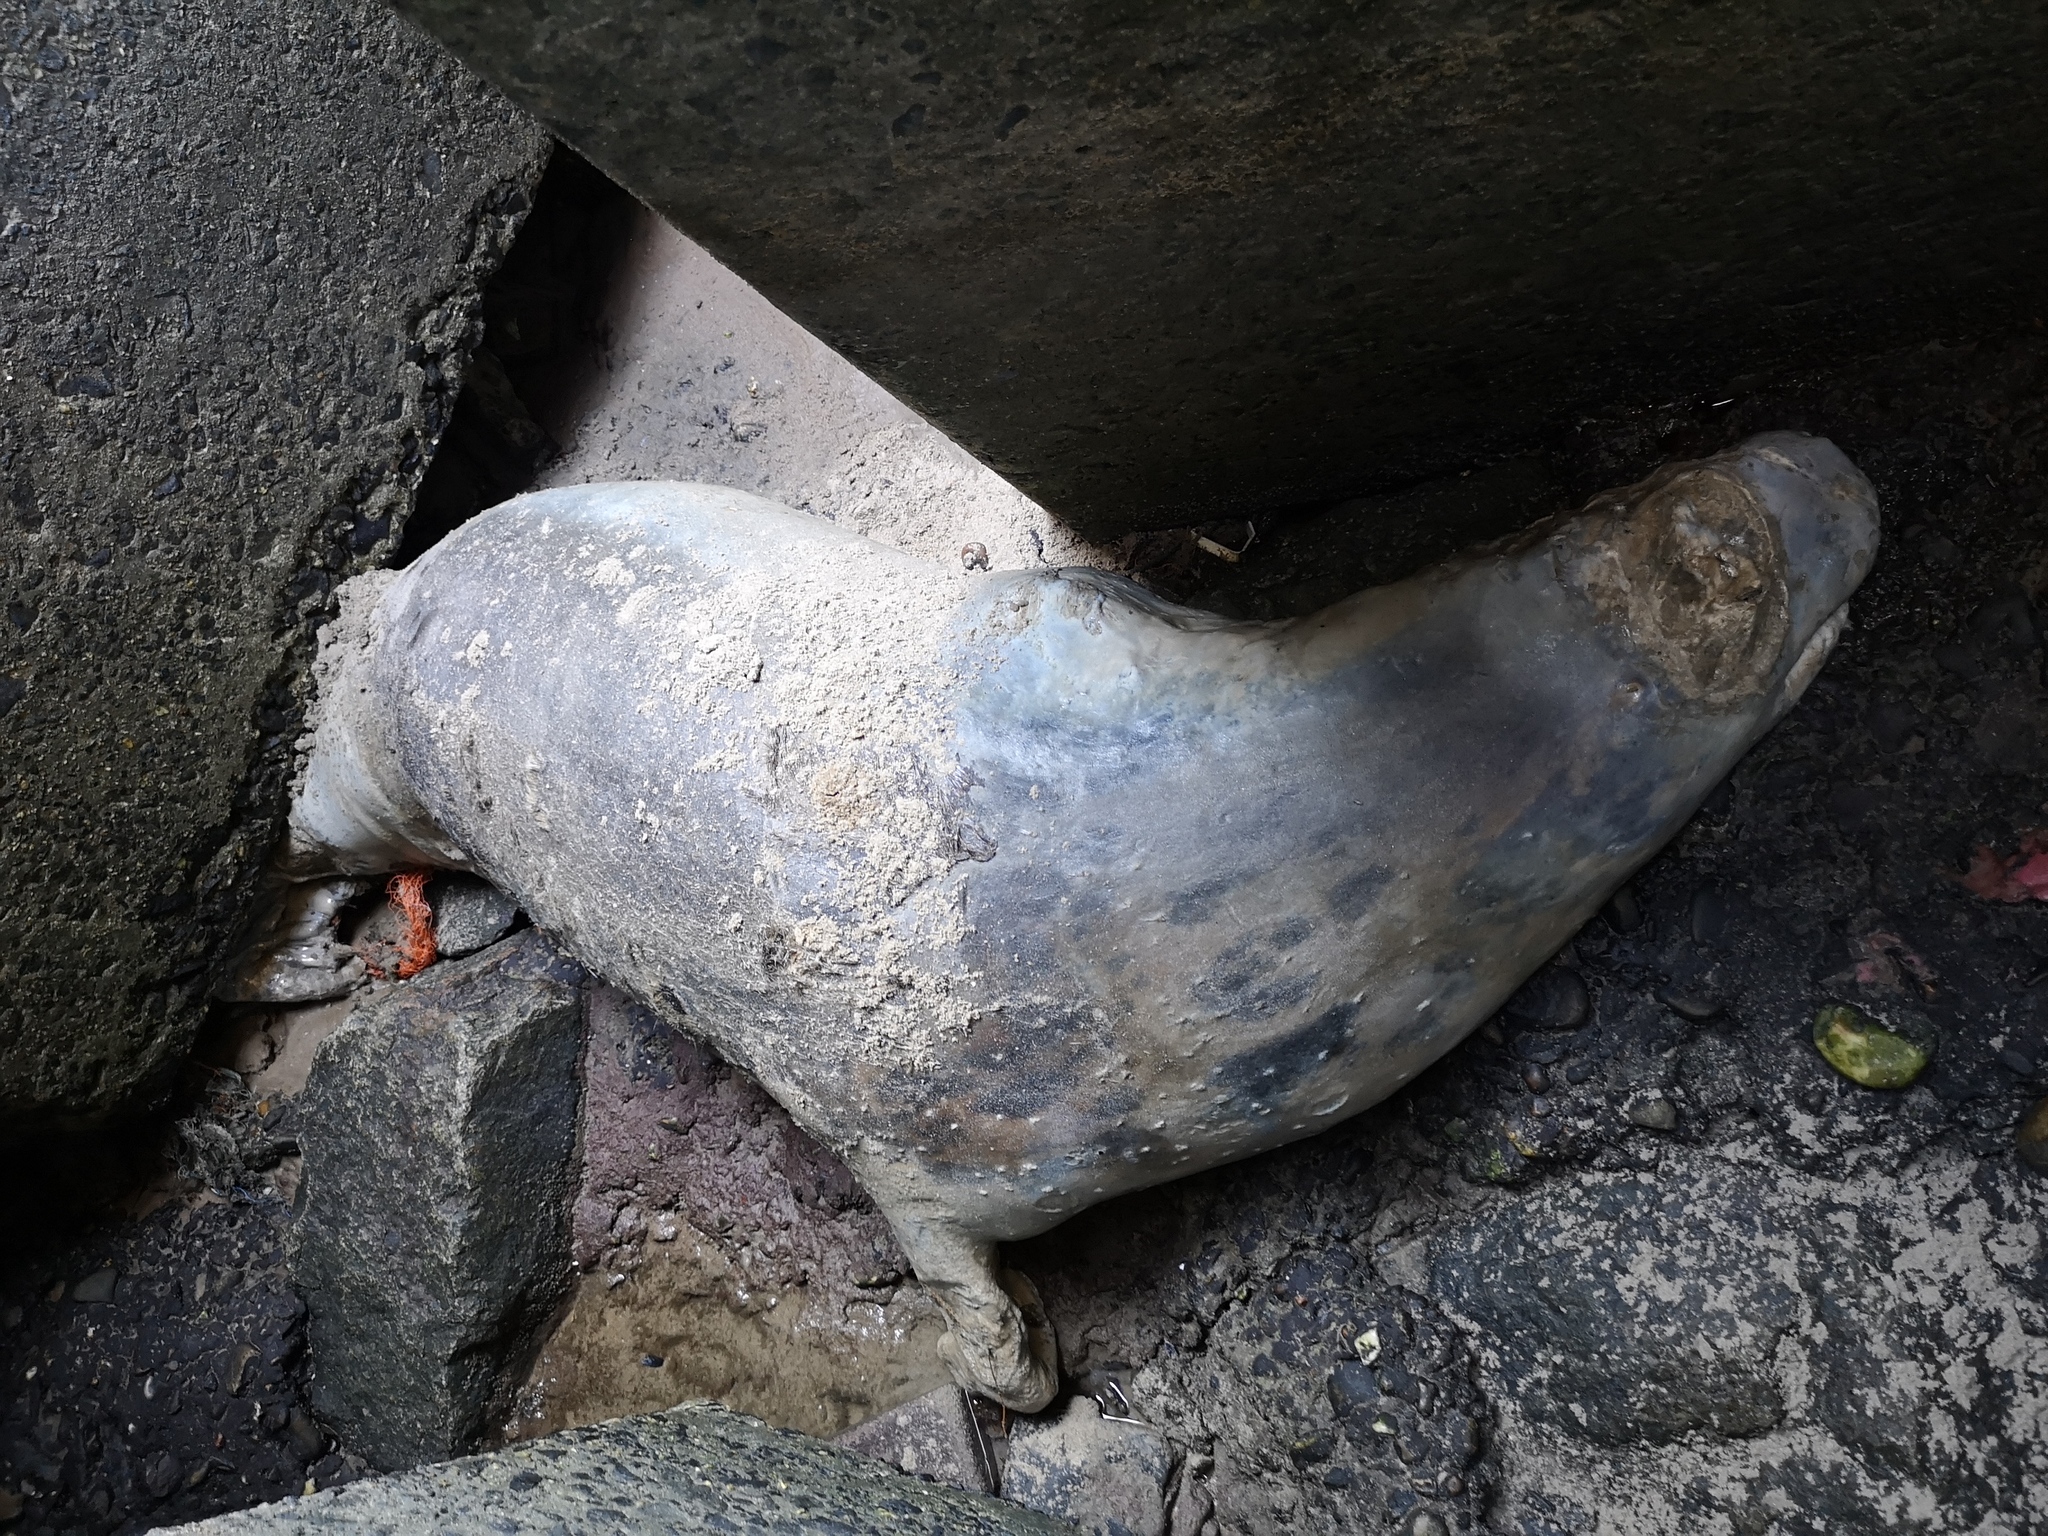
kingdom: Animalia
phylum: Chordata
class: Mammalia
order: Carnivora
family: Phocidae
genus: Halichoerus
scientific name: Halichoerus grypus
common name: Grey seal
